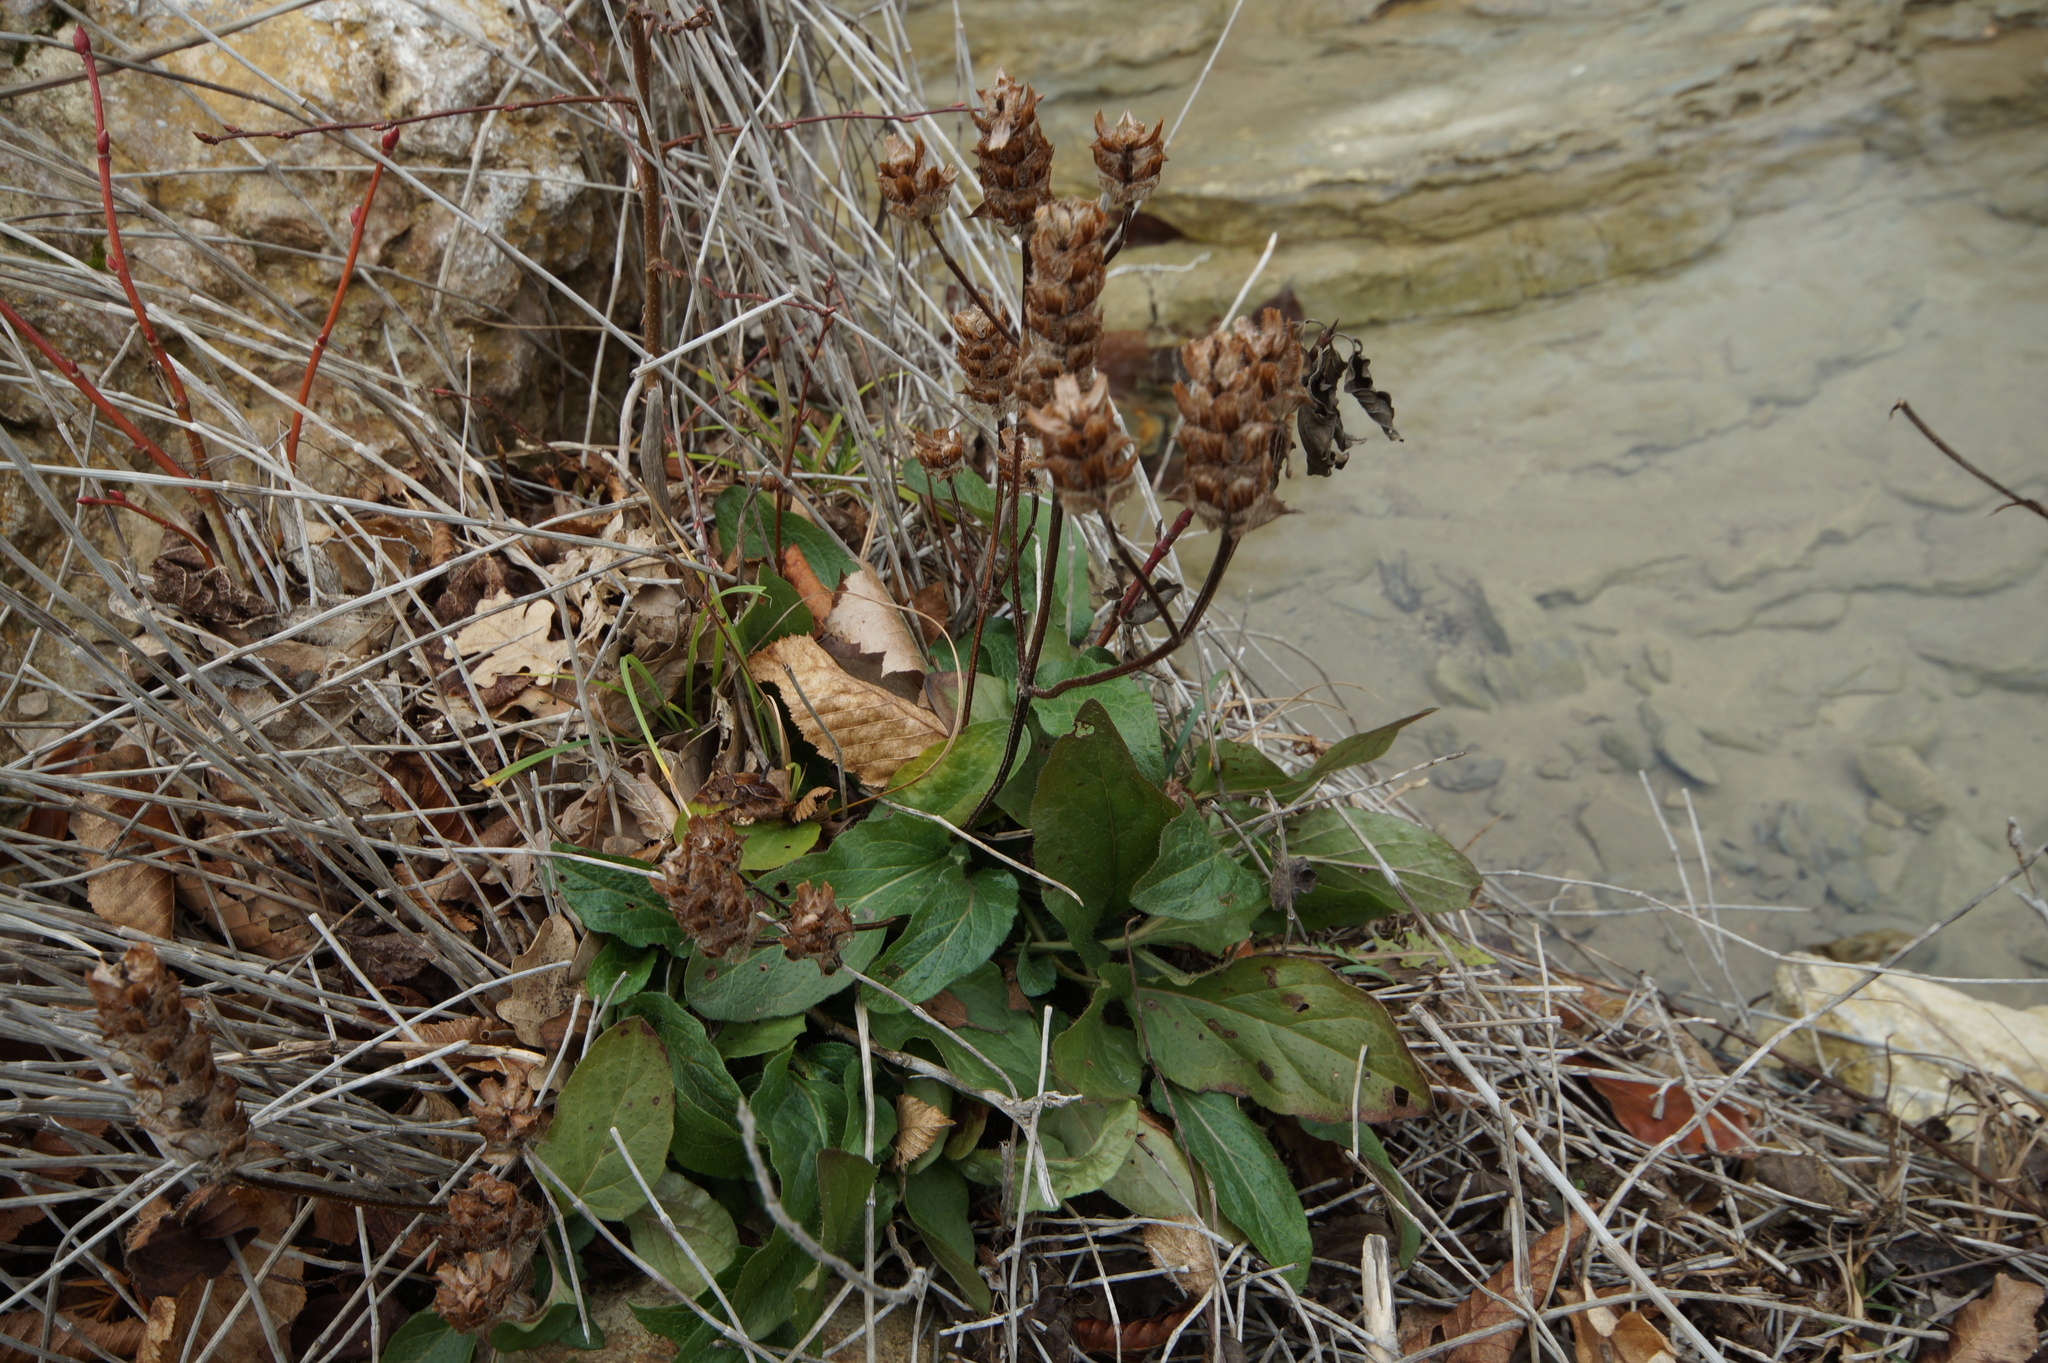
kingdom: Plantae
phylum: Tracheophyta
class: Magnoliopsida
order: Lamiales
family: Lamiaceae
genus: Prunella
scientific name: Prunella vulgaris
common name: Heal-all
